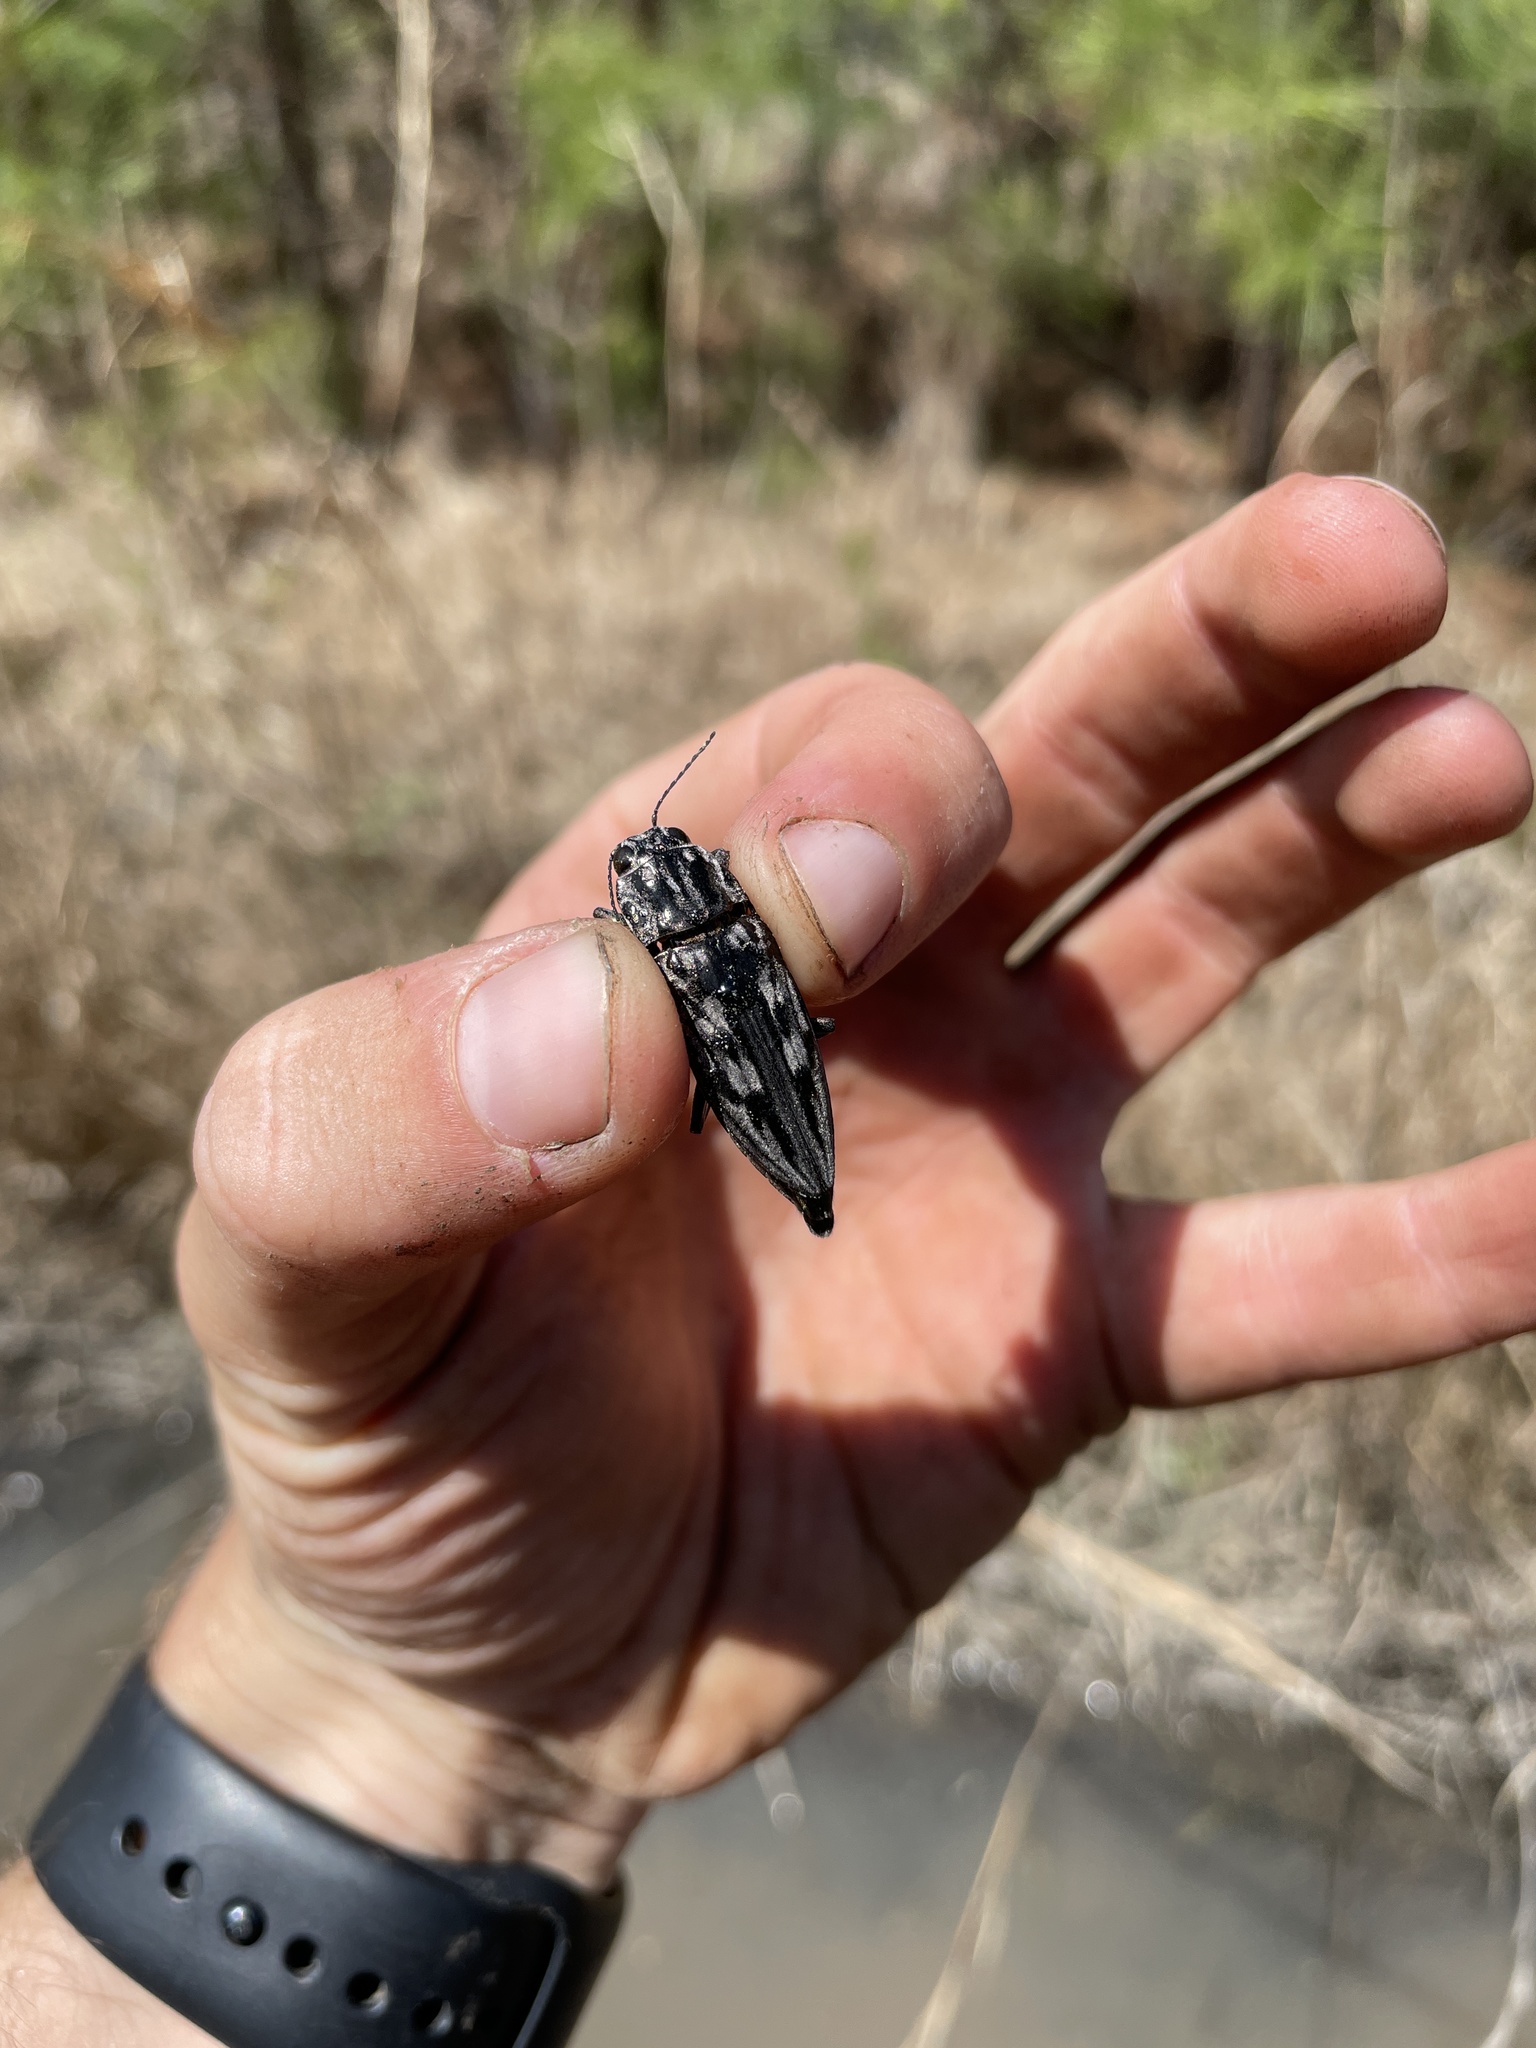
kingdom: Animalia
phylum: Arthropoda
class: Insecta
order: Coleoptera
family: Buprestidae
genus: Chalcophora
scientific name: Chalcophora virginiensis
